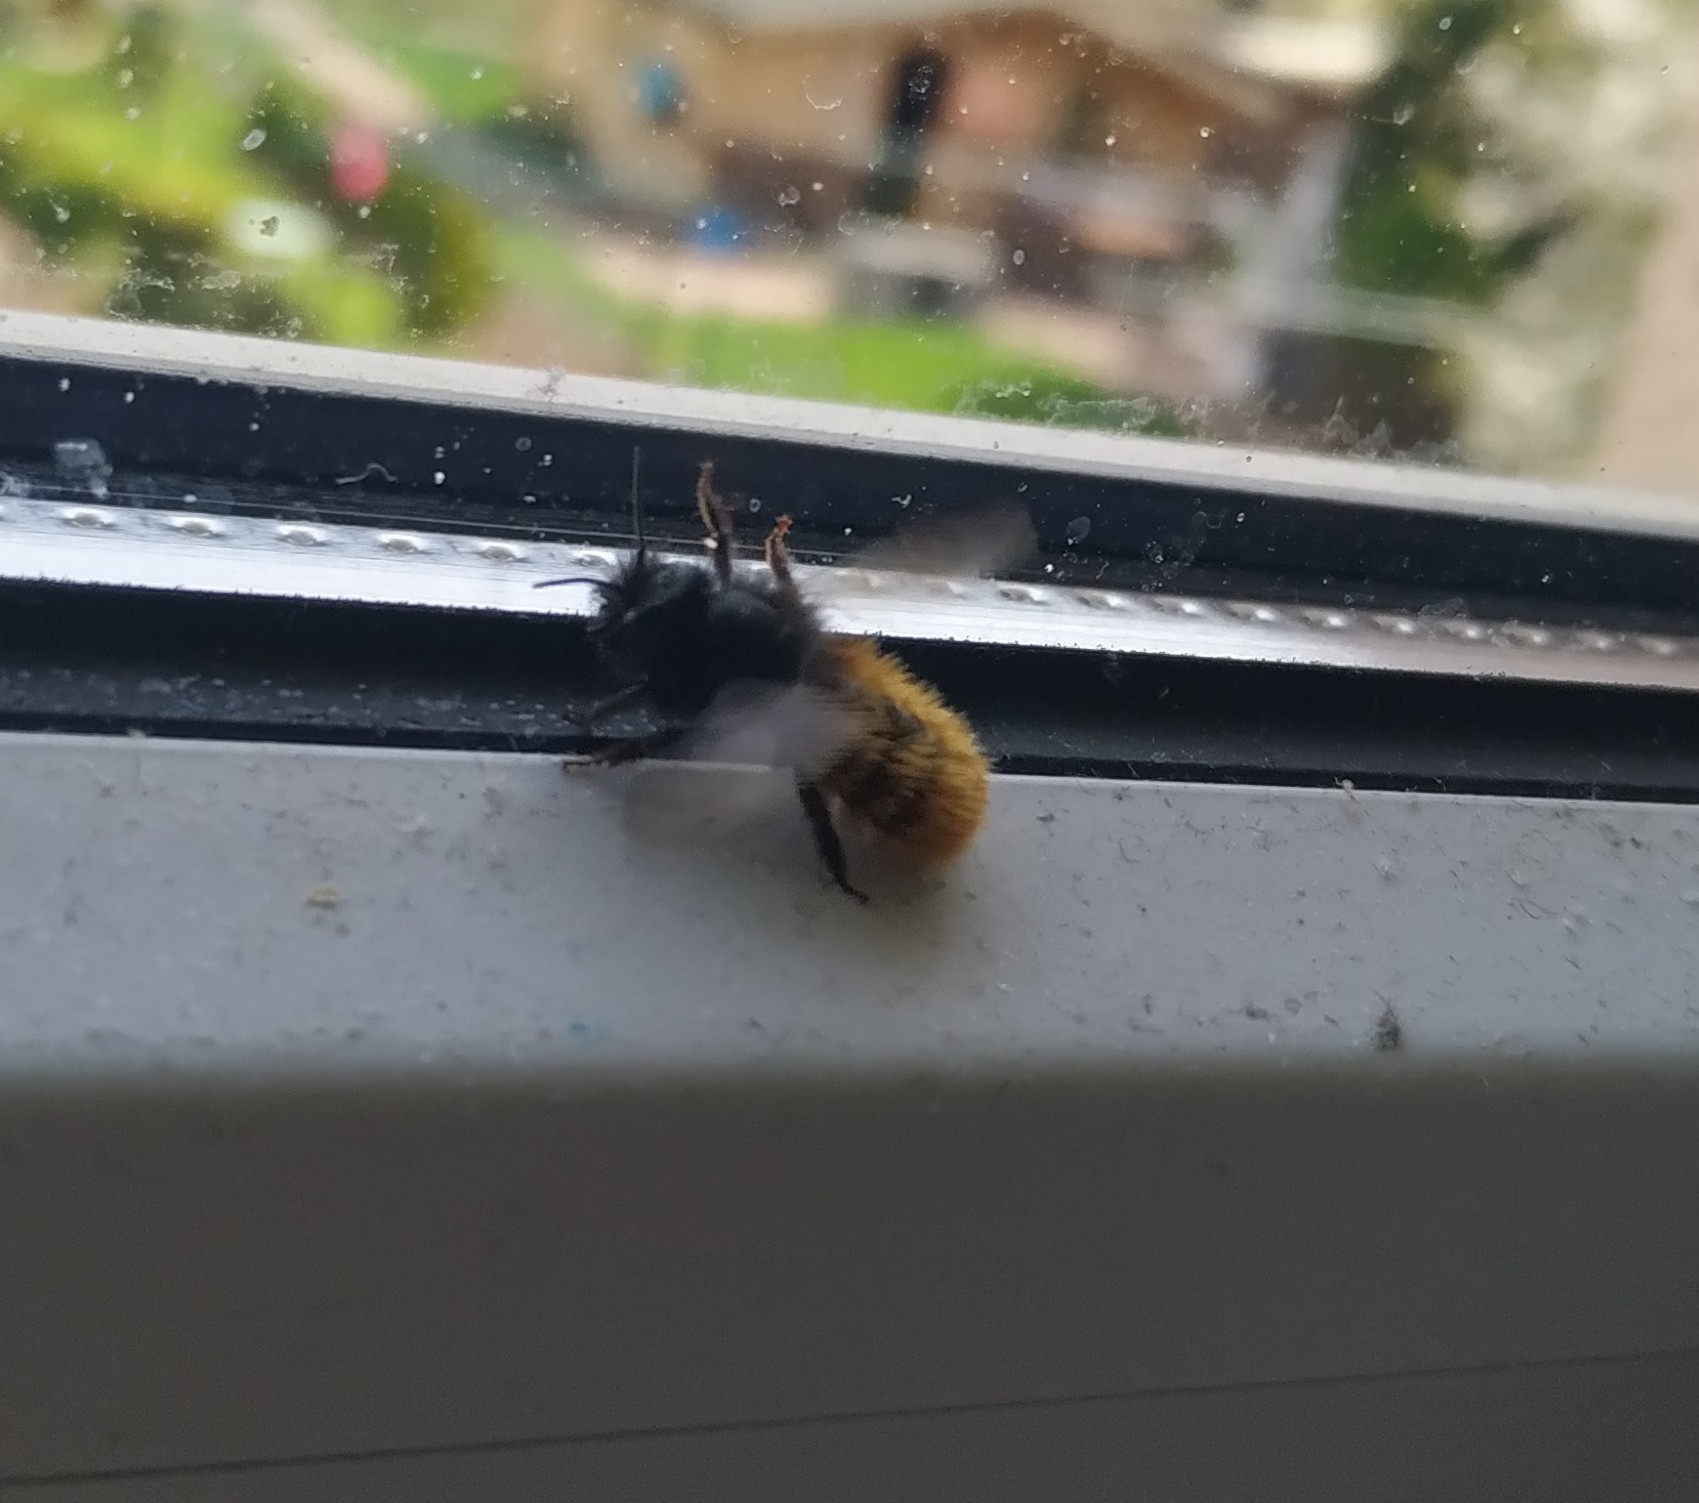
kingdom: Animalia
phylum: Arthropoda
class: Insecta
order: Hymenoptera
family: Megachilidae
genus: Osmia
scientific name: Osmia cornuta
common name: Mason bee
